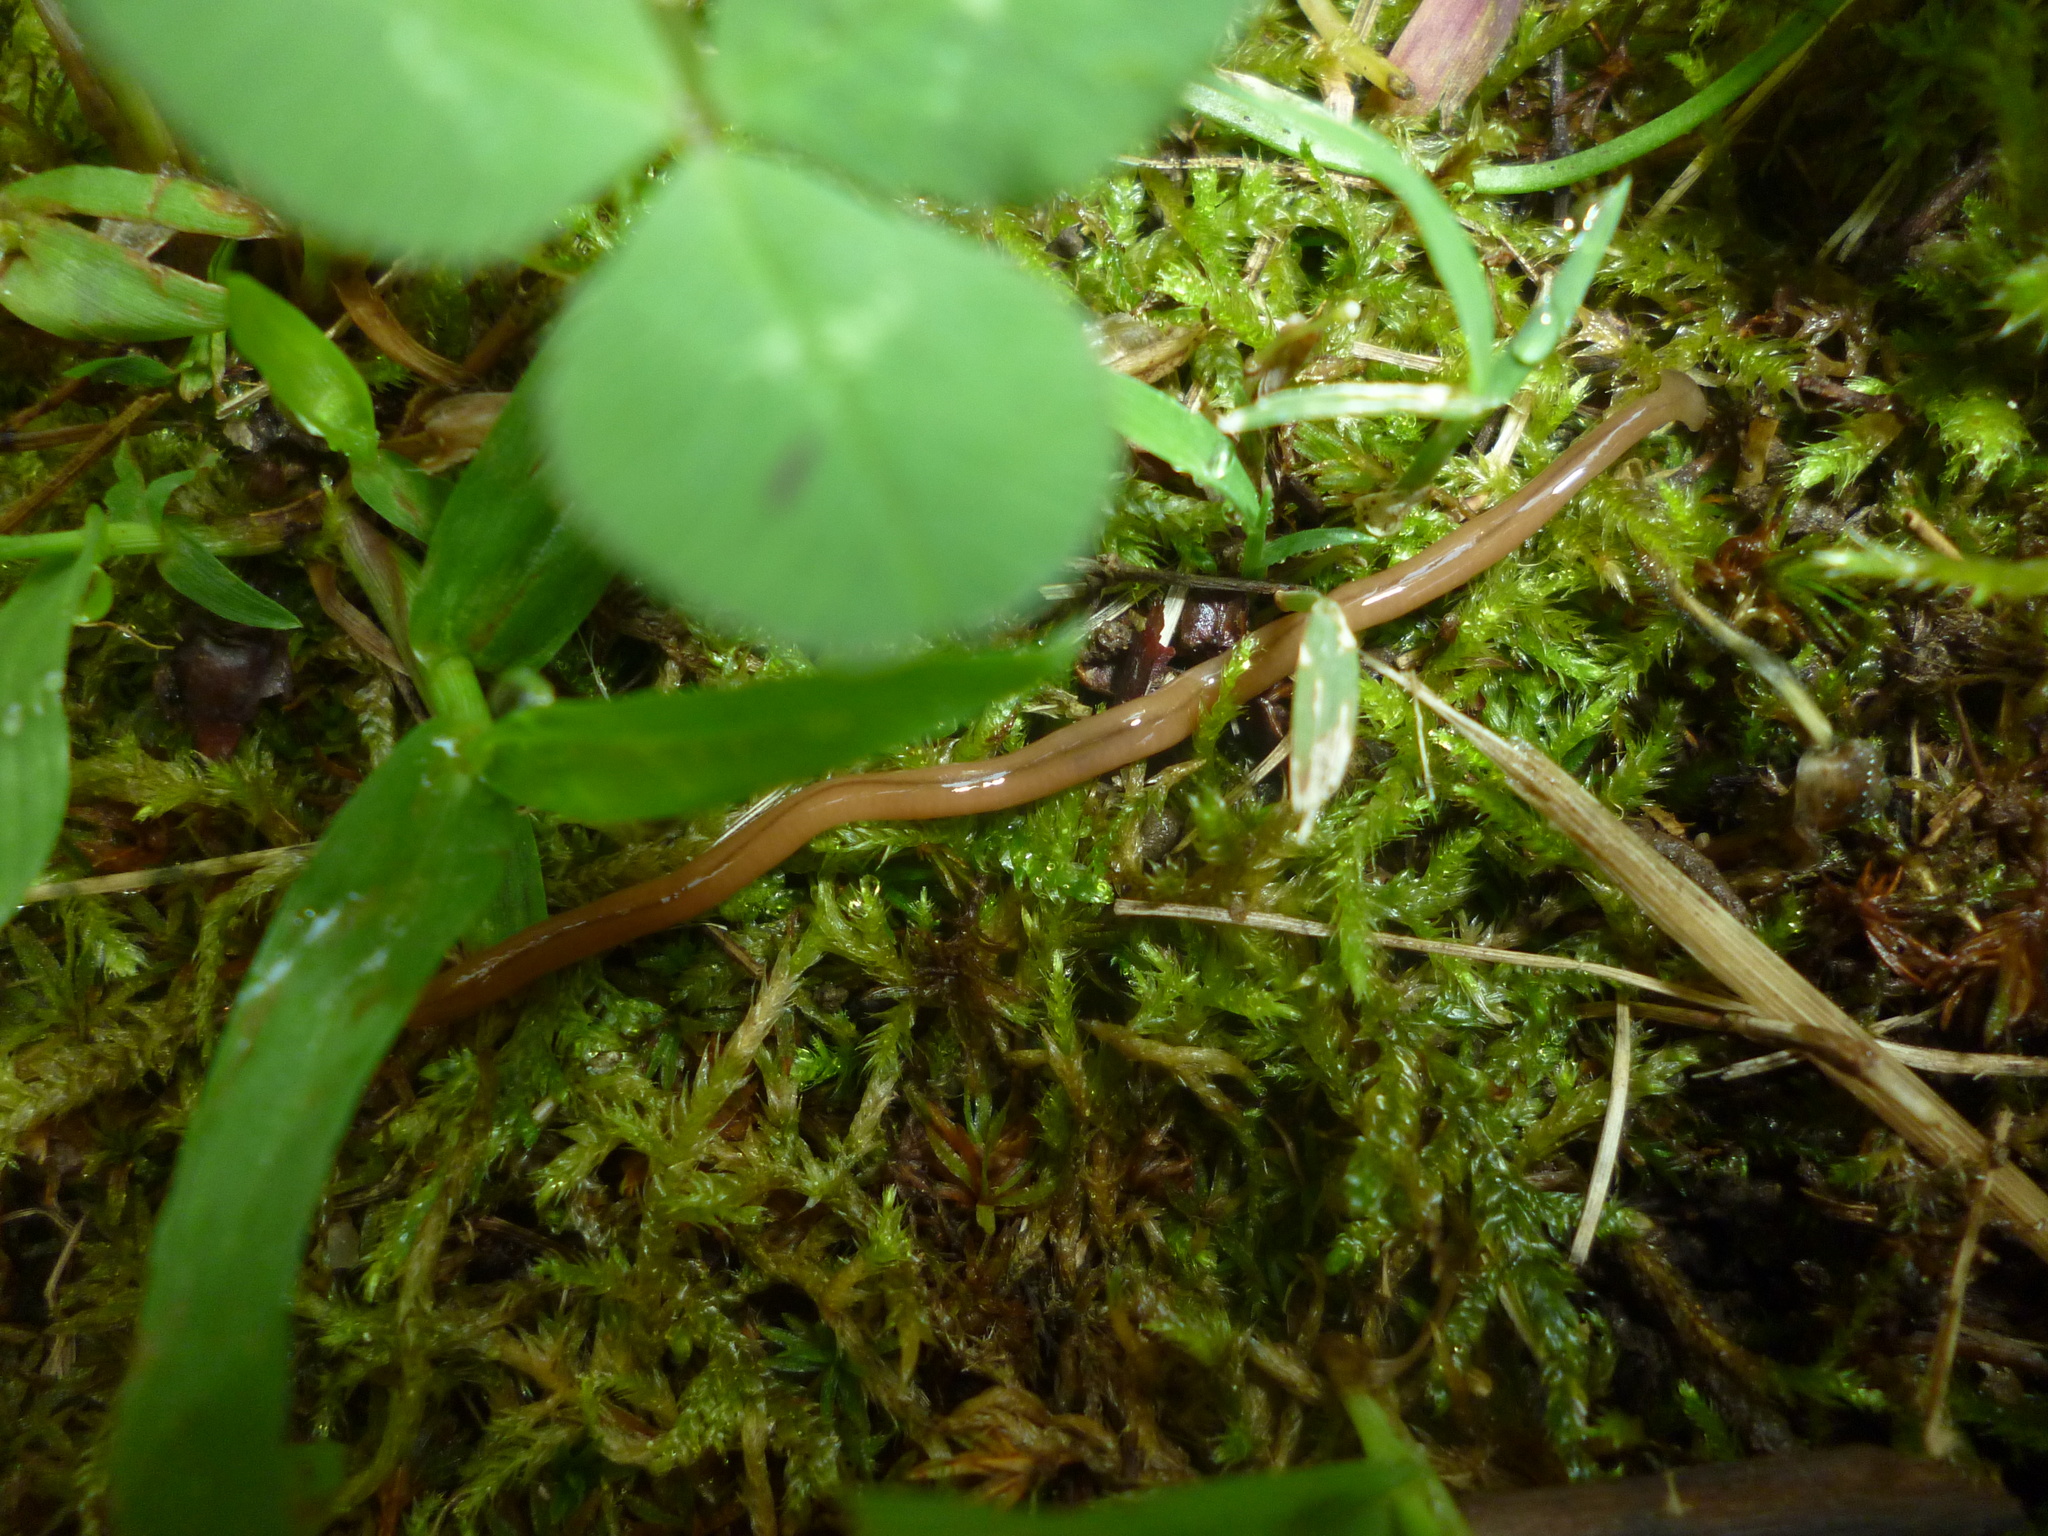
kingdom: Animalia
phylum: Platyhelminthes
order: Tricladida
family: Geoplanidae
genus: Bipalium
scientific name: Bipalium adventitium
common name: Land planarian
